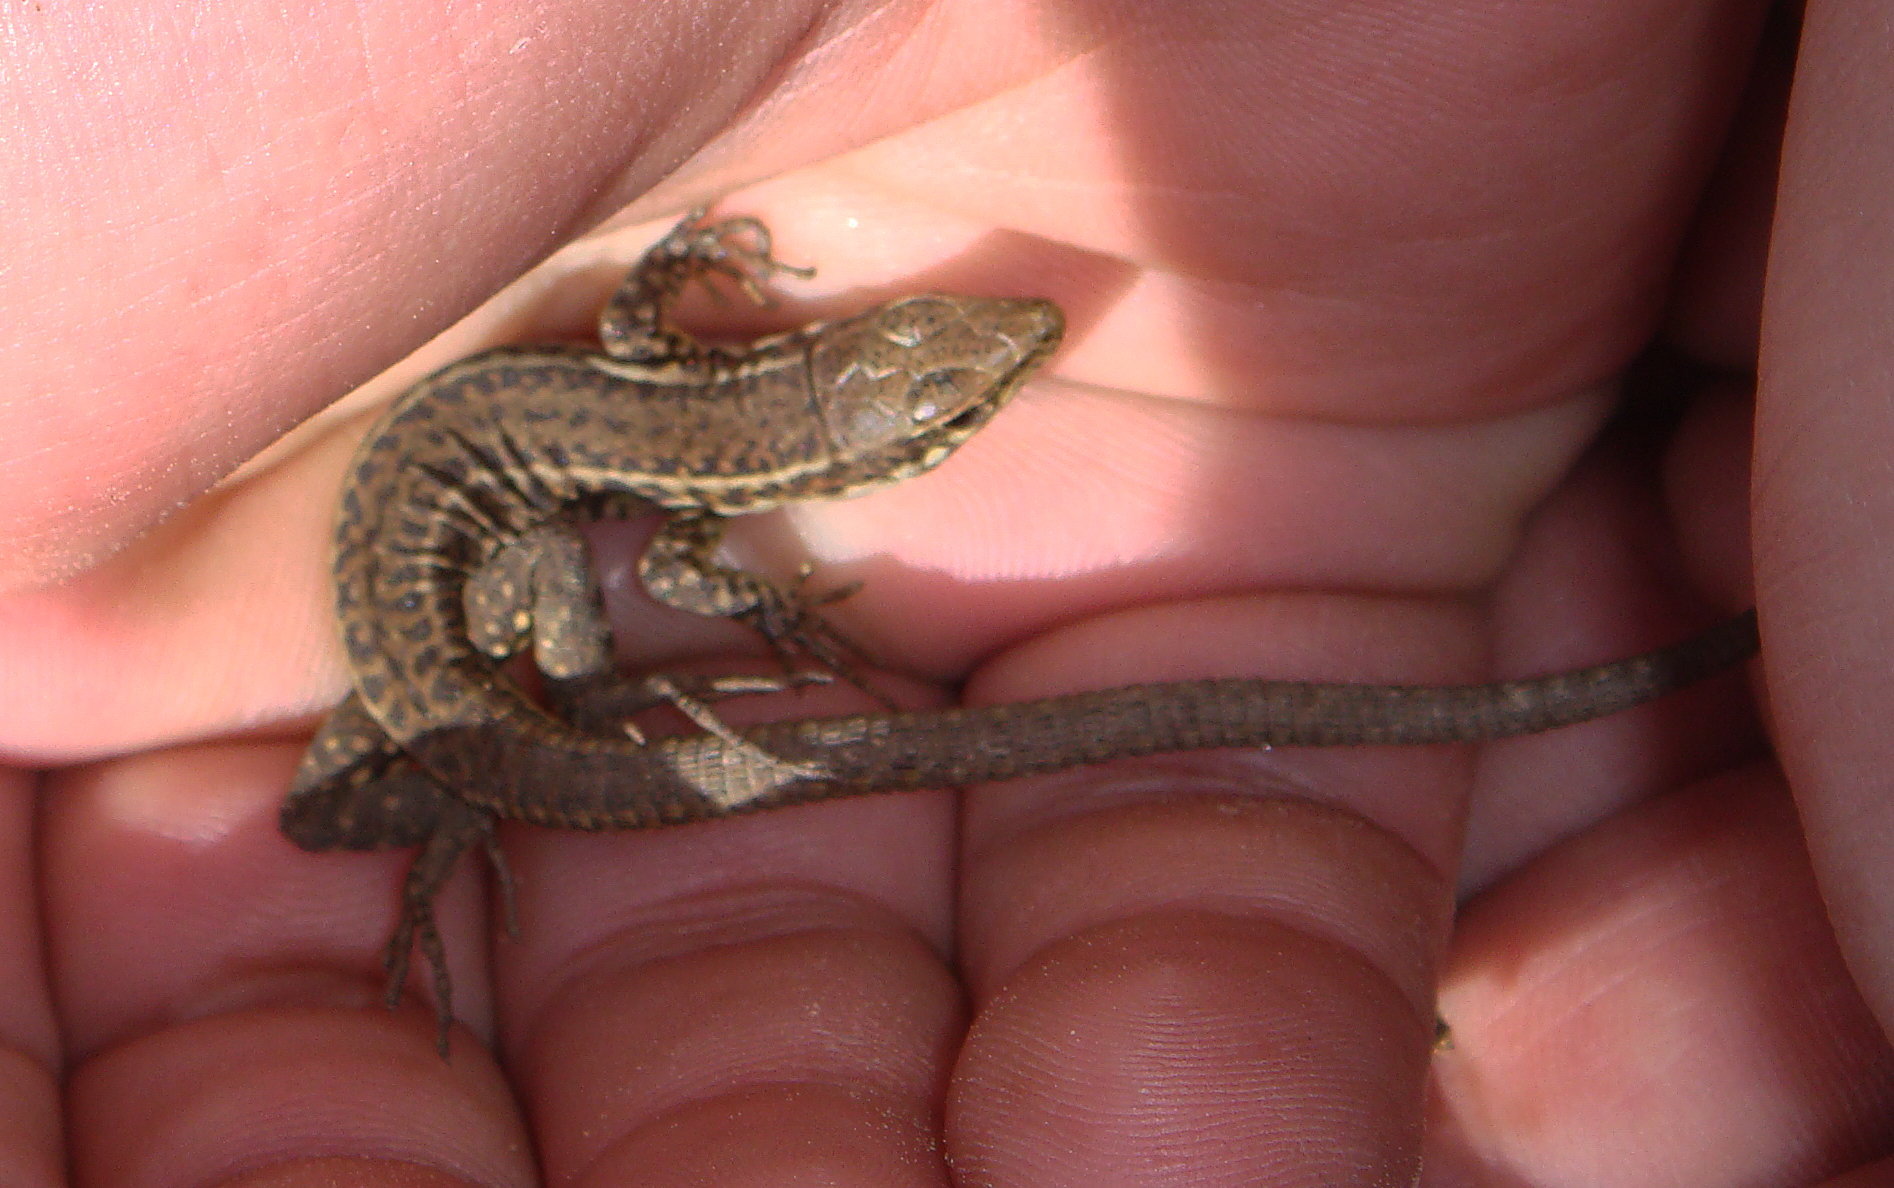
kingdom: Animalia
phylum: Chordata
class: Squamata
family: Lacertidae
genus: Podarcis
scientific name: Podarcis tiliguerta
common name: Tyrrhenian wall lizard
